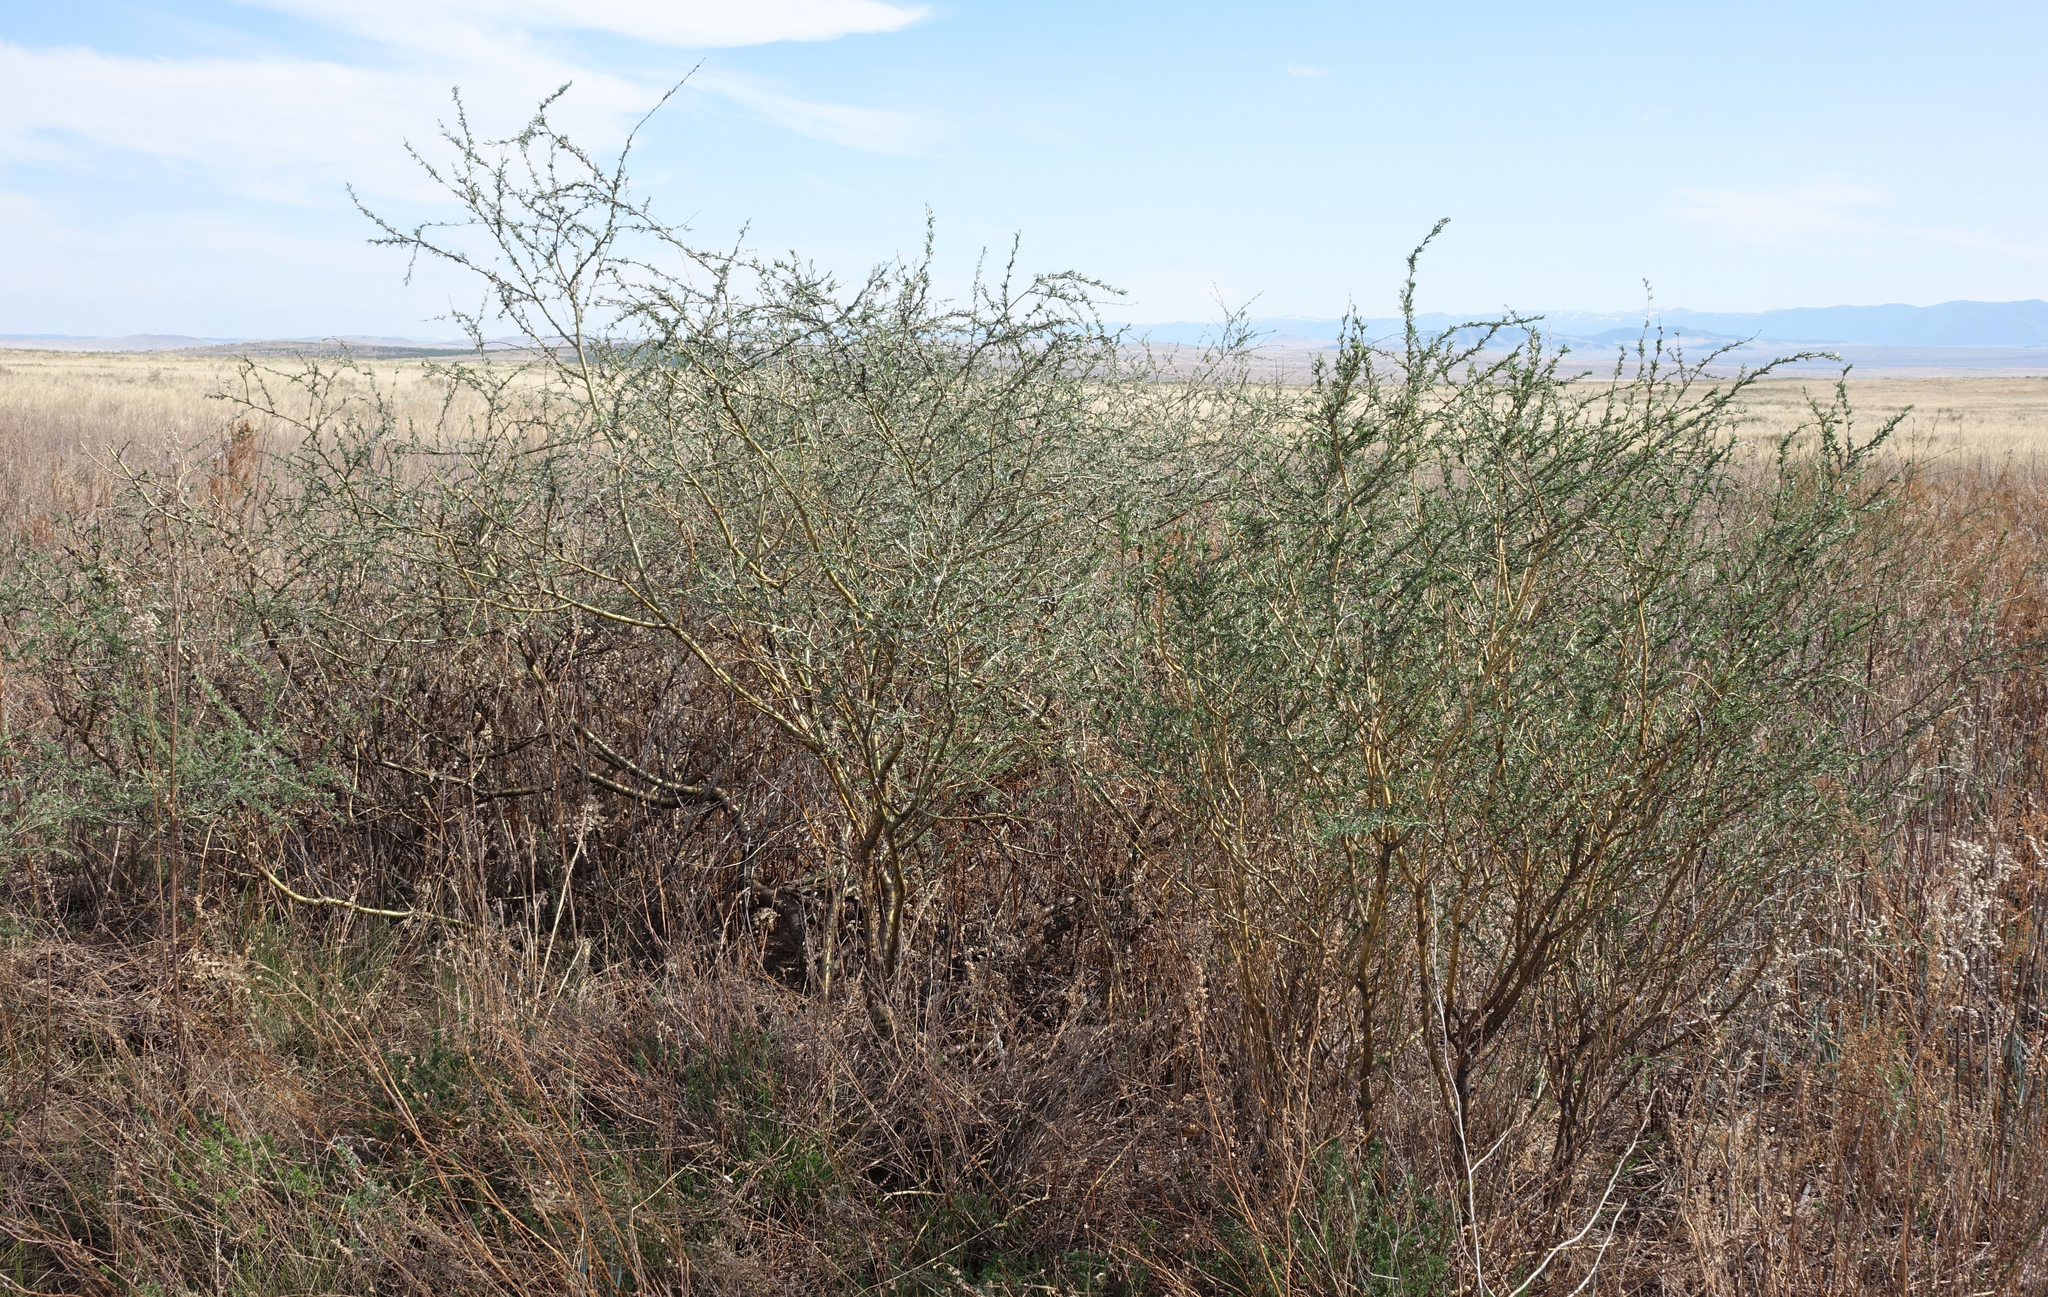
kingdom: Plantae
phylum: Tracheophyta
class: Magnoliopsida
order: Fabales
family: Fabaceae
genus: Caragana
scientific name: Caragana pygmaea
